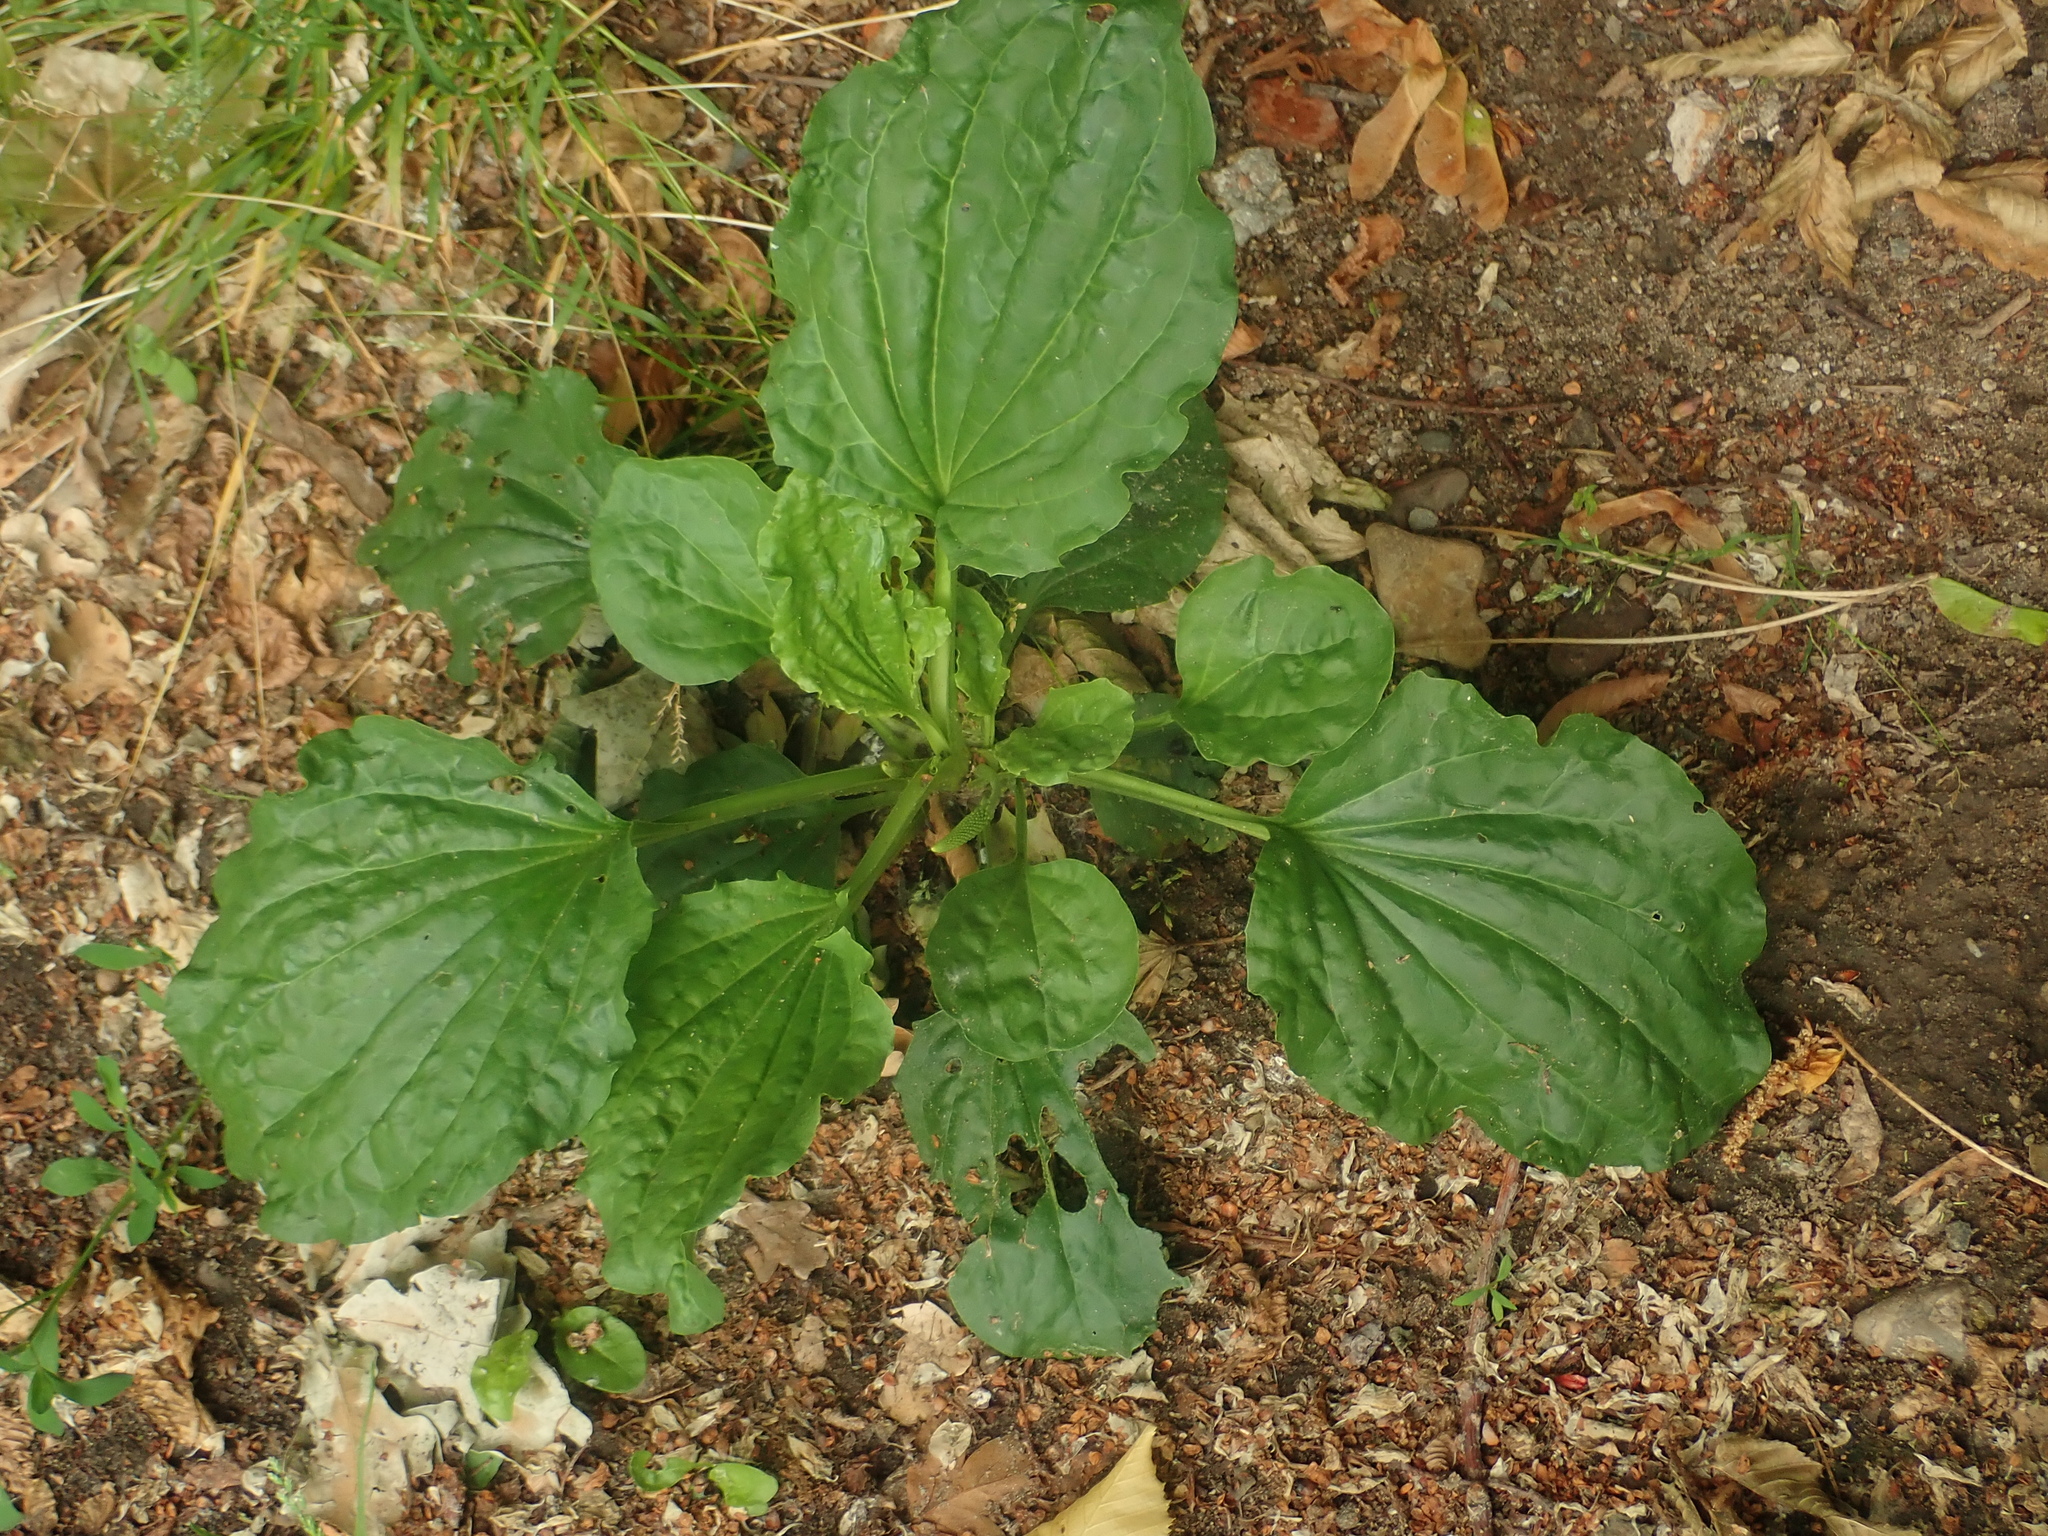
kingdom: Plantae
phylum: Tracheophyta
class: Magnoliopsida
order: Lamiales
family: Plantaginaceae
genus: Plantago
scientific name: Plantago major
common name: Common plantain
